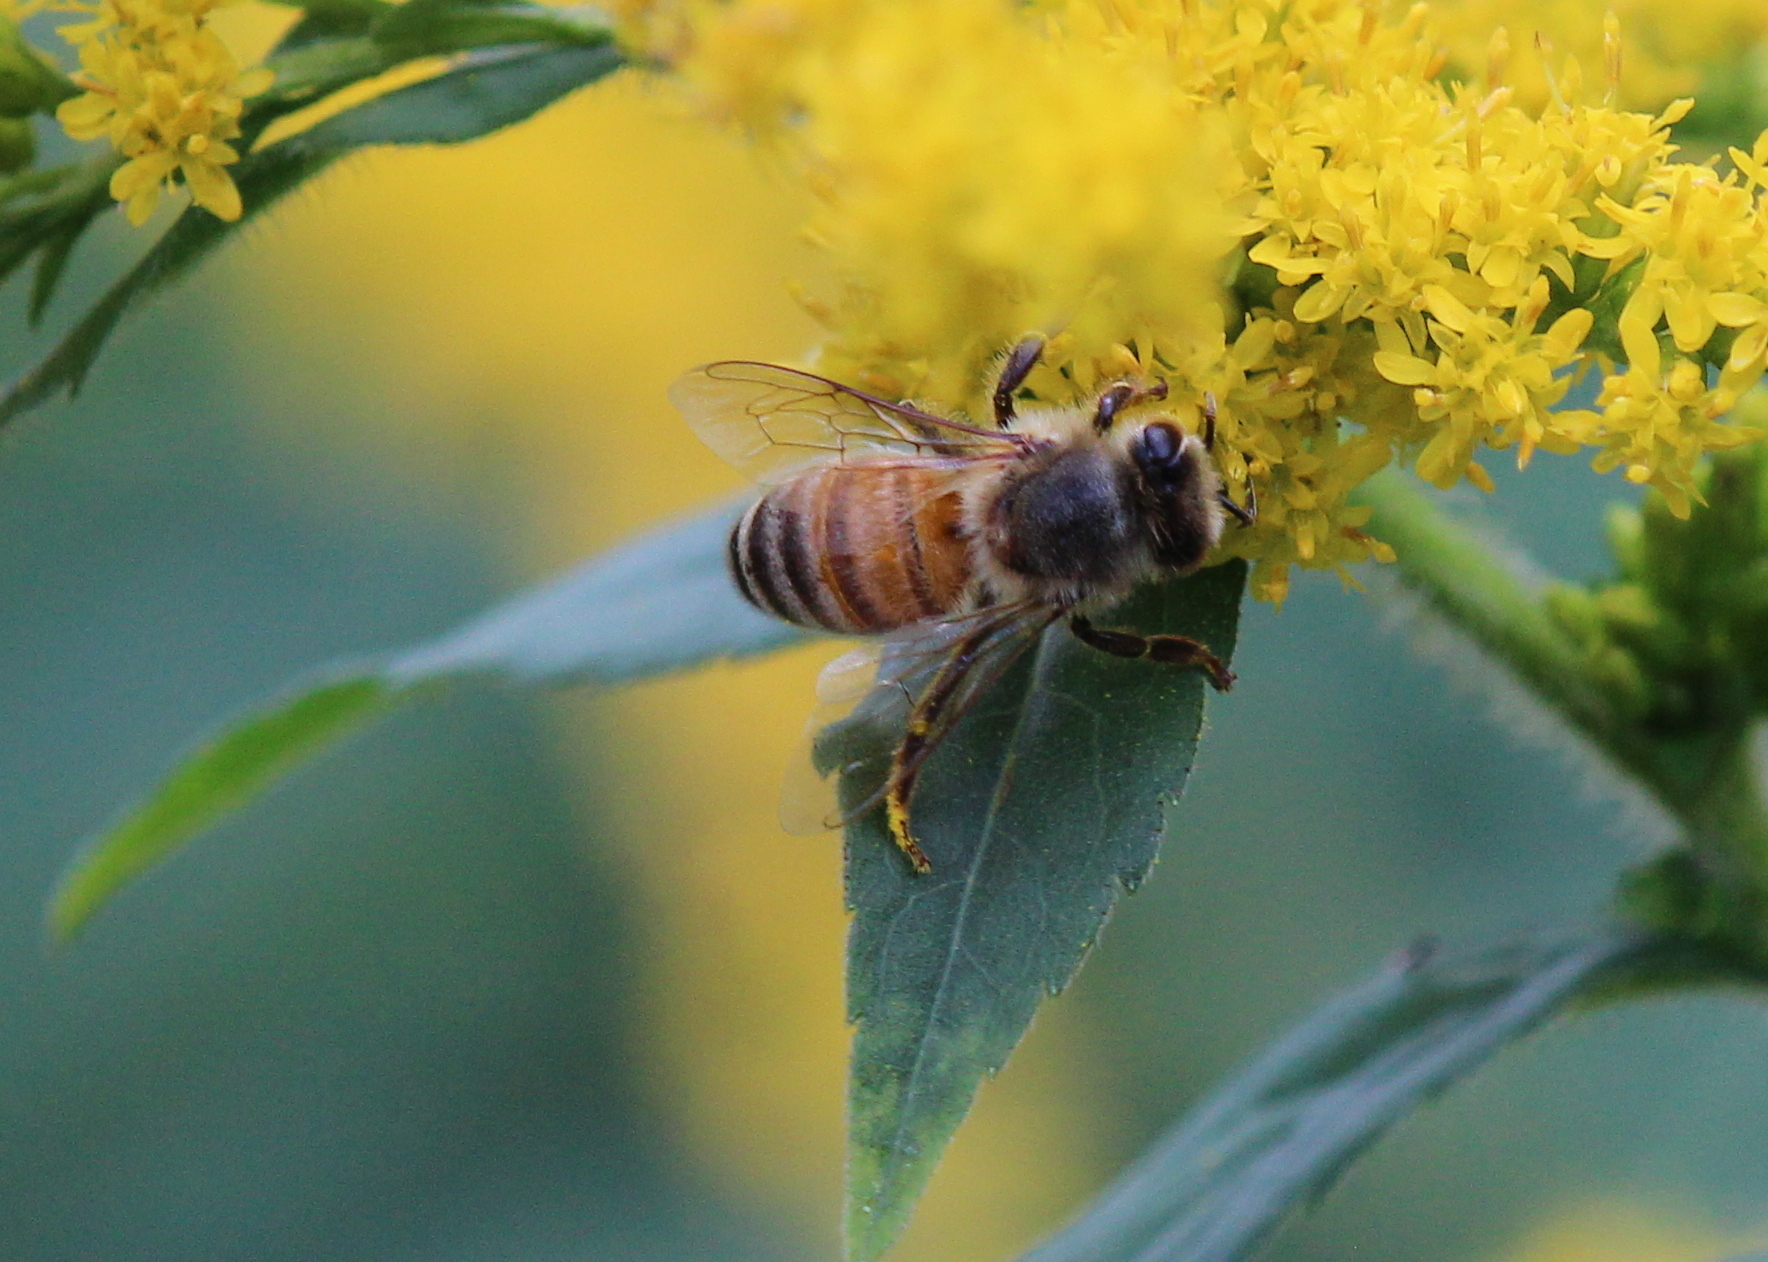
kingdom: Animalia
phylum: Arthropoda
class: Insecta
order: Hymenoptera
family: Apidae
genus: Apis
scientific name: Apis mellifera
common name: Honey bee
